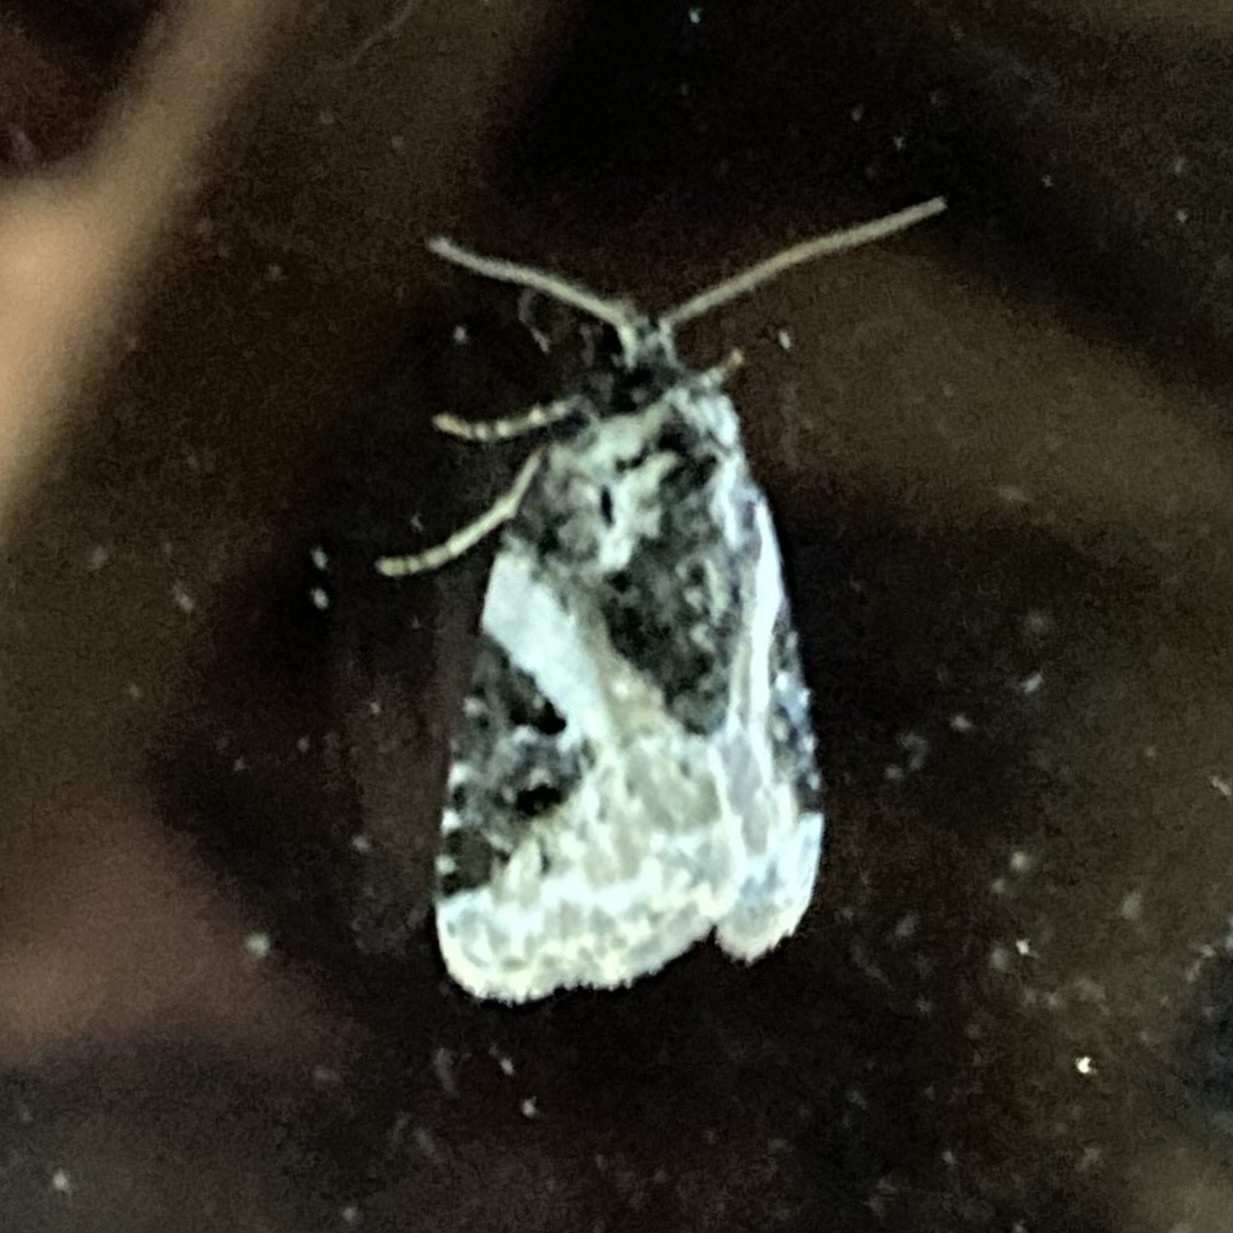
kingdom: Animalia
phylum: Arthropoda
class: Insecta
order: Lepidoptera
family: Noctuidae
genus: Pseudeustrotia
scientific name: Pseudeustrotia carneola
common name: Pink-barred lithacodia moth
